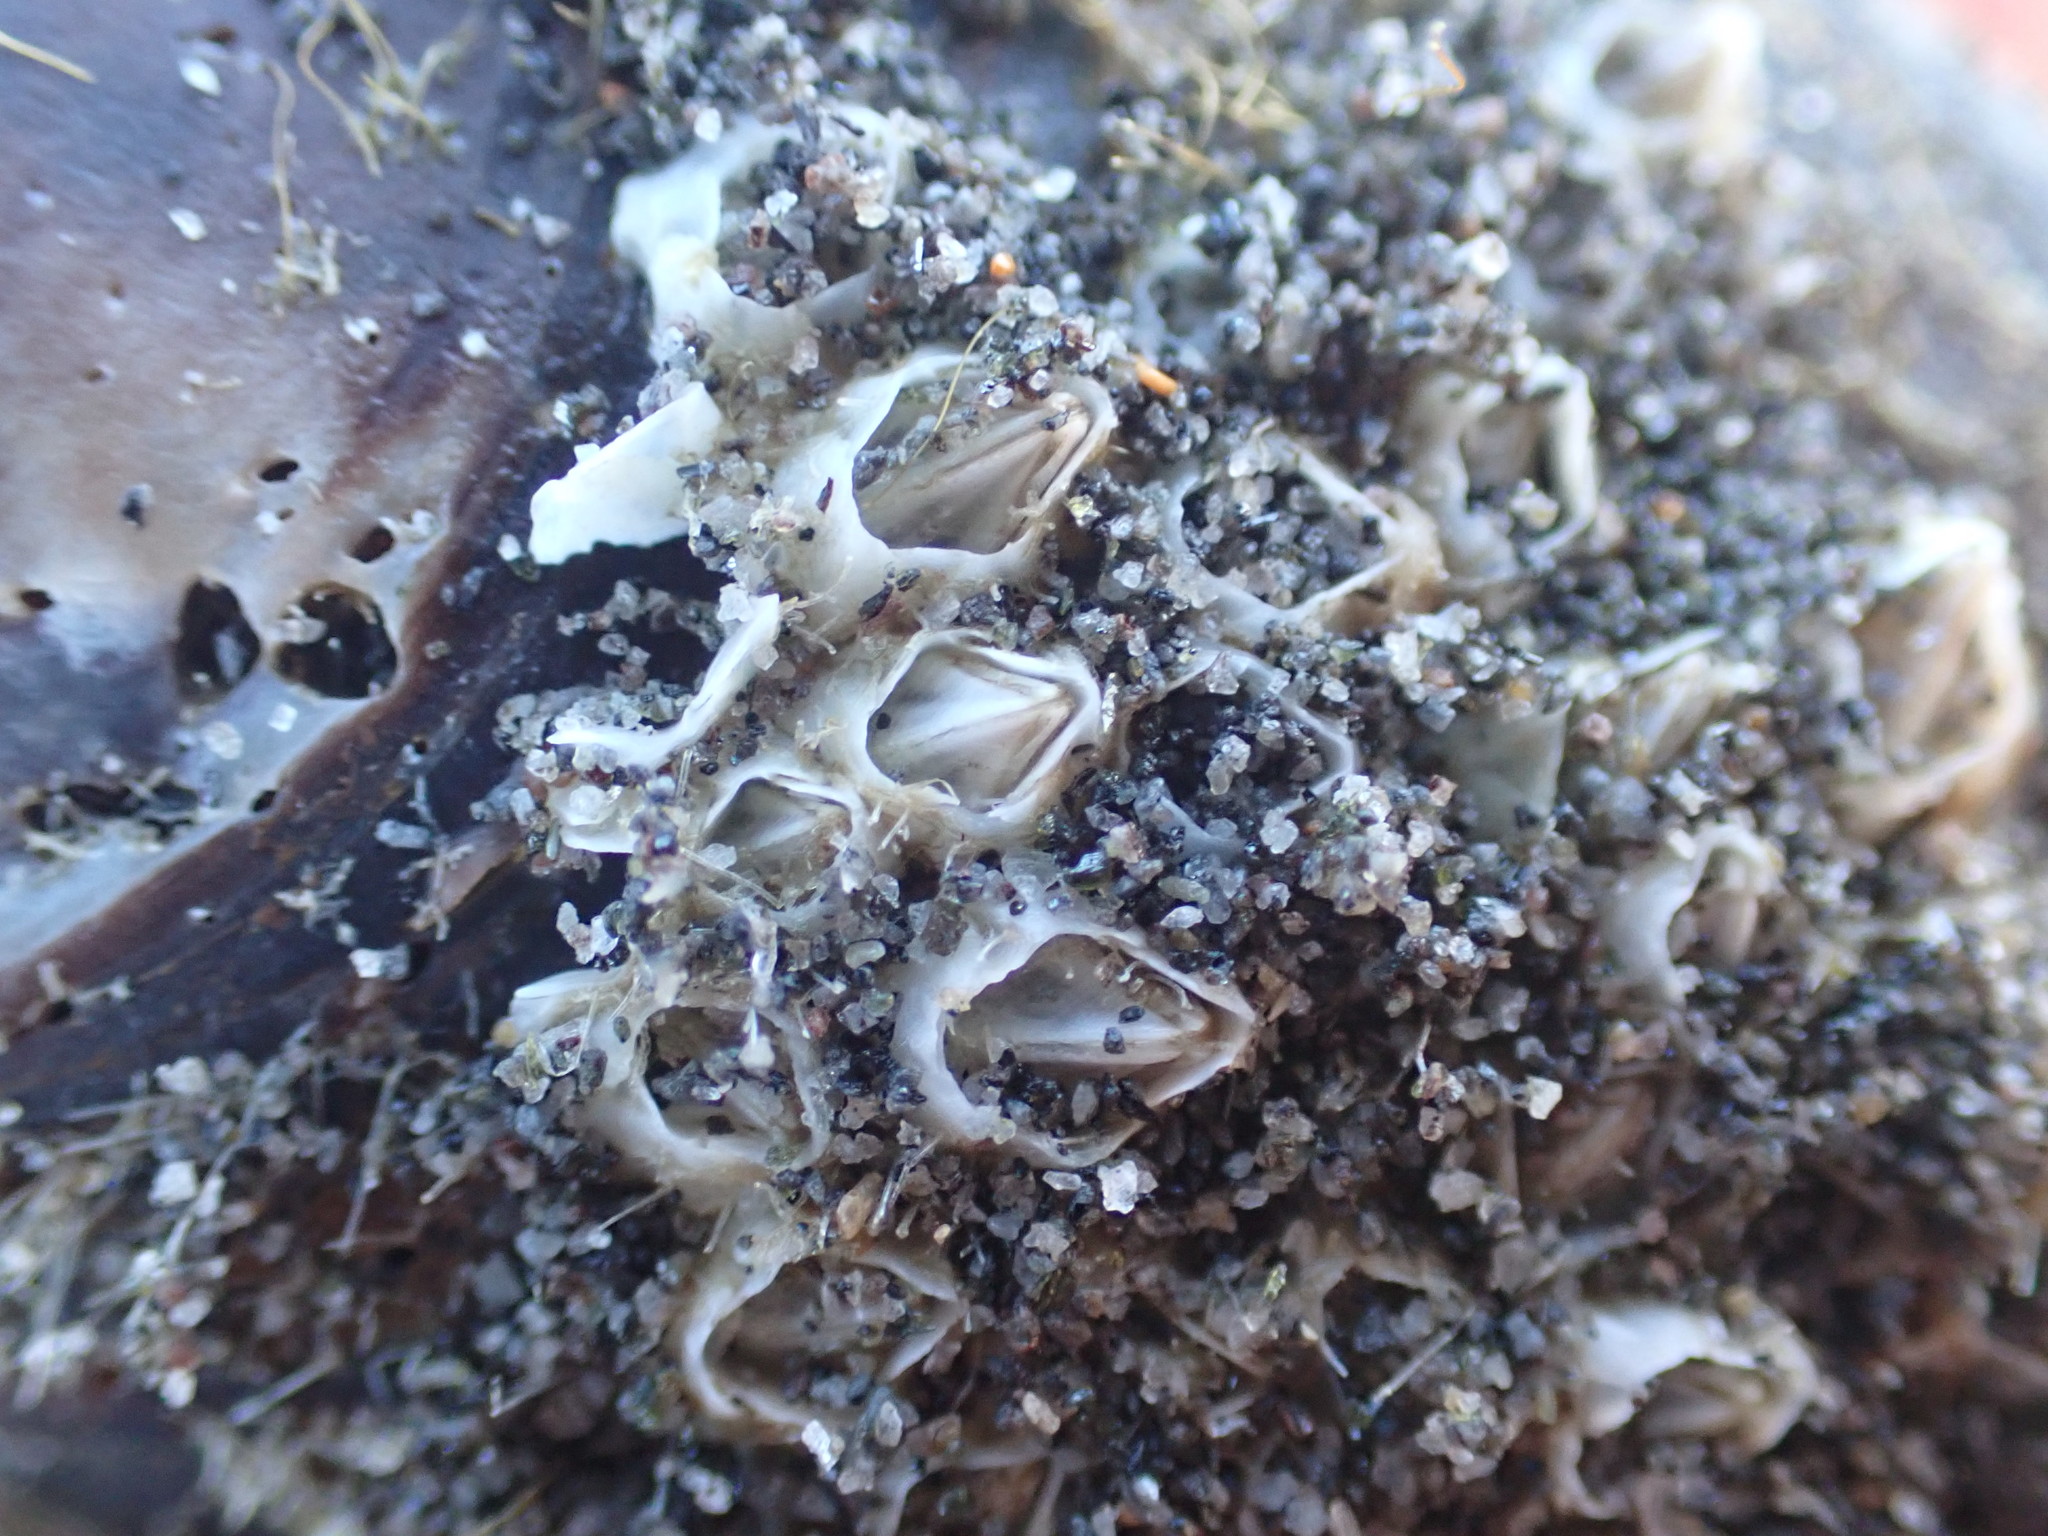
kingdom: Animalia
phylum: Arthropoda
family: Elminiidae
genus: Austrominius
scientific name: Austrominius modestus
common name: Australasian barnacle
